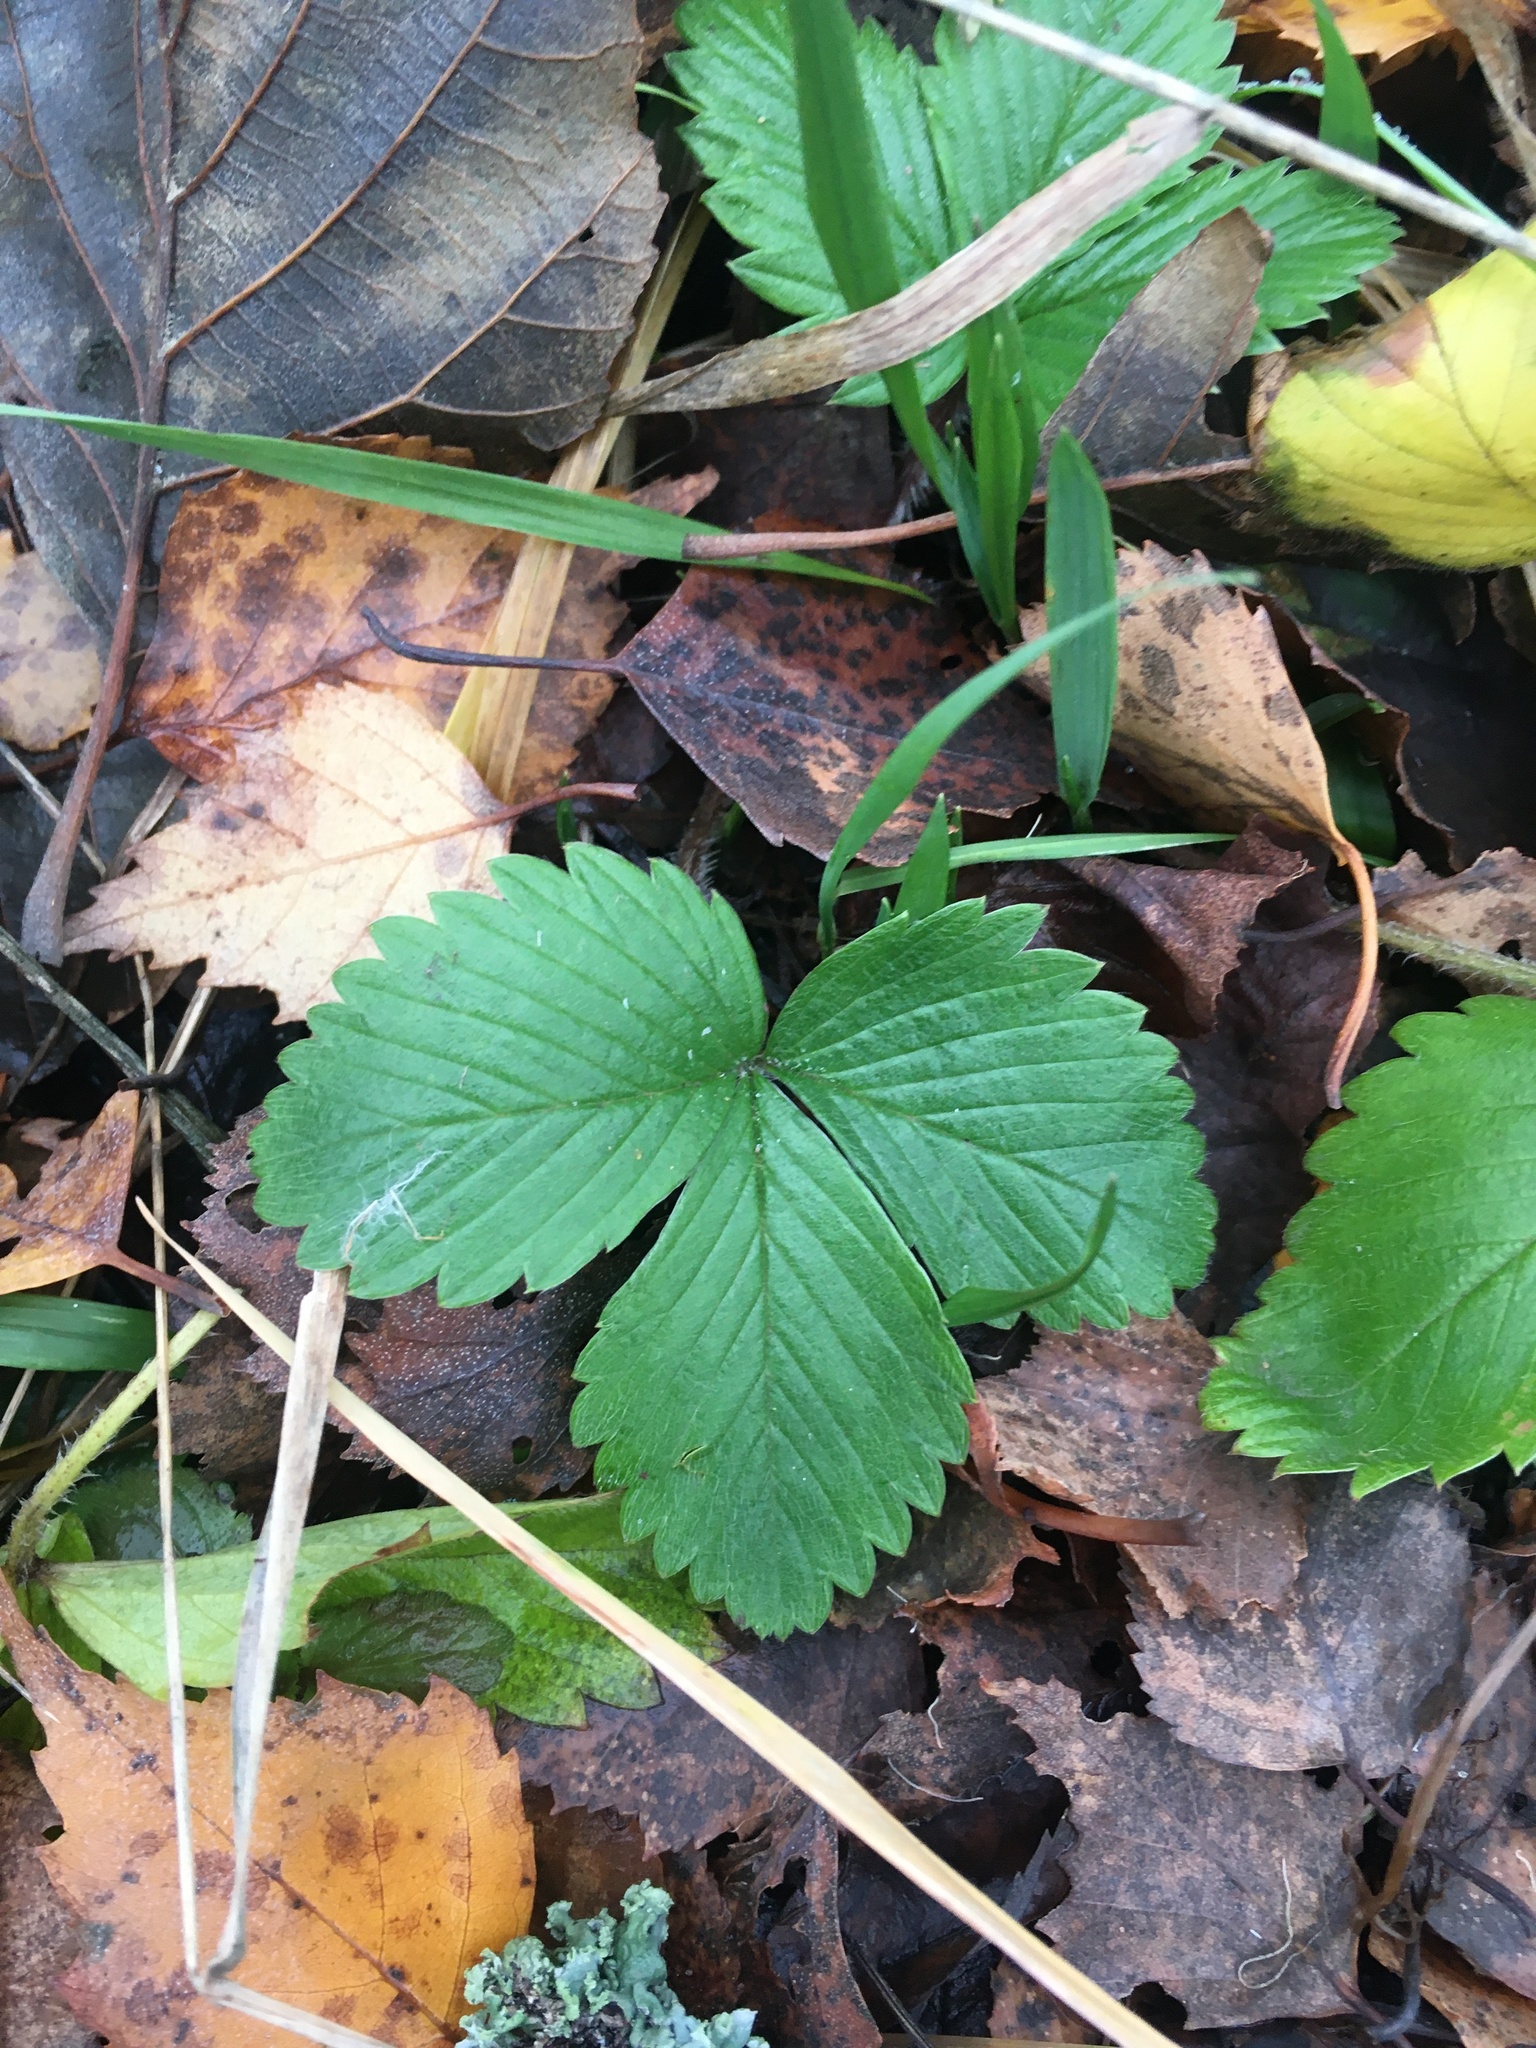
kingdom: Plantae
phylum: Tracheophyta
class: Magnoliopsida
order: Rosales
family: Rosaceae
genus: Fragaria
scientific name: Fragaria vesca
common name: Wild strawberry
